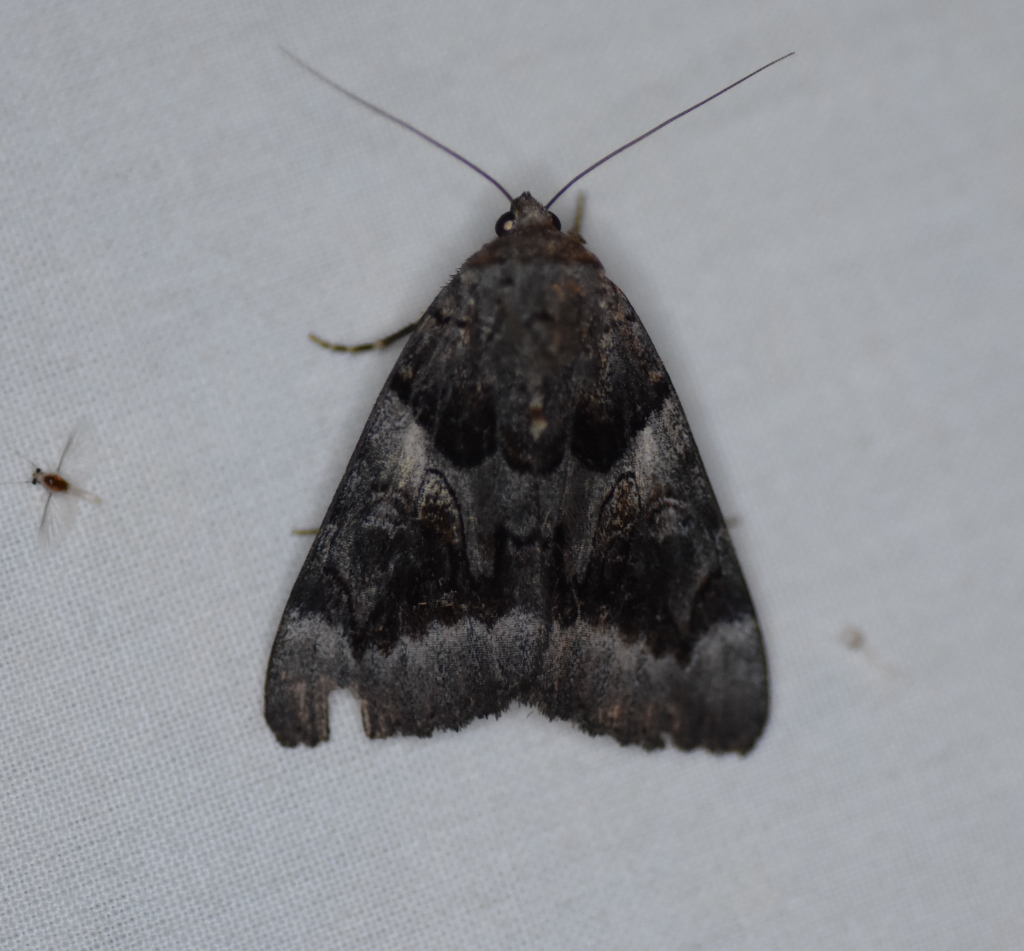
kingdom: Animalia
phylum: Arthropoda
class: Insecta
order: Lepidoptera
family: Erebidae
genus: Catocala
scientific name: Catocala badia
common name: Bay underwing
